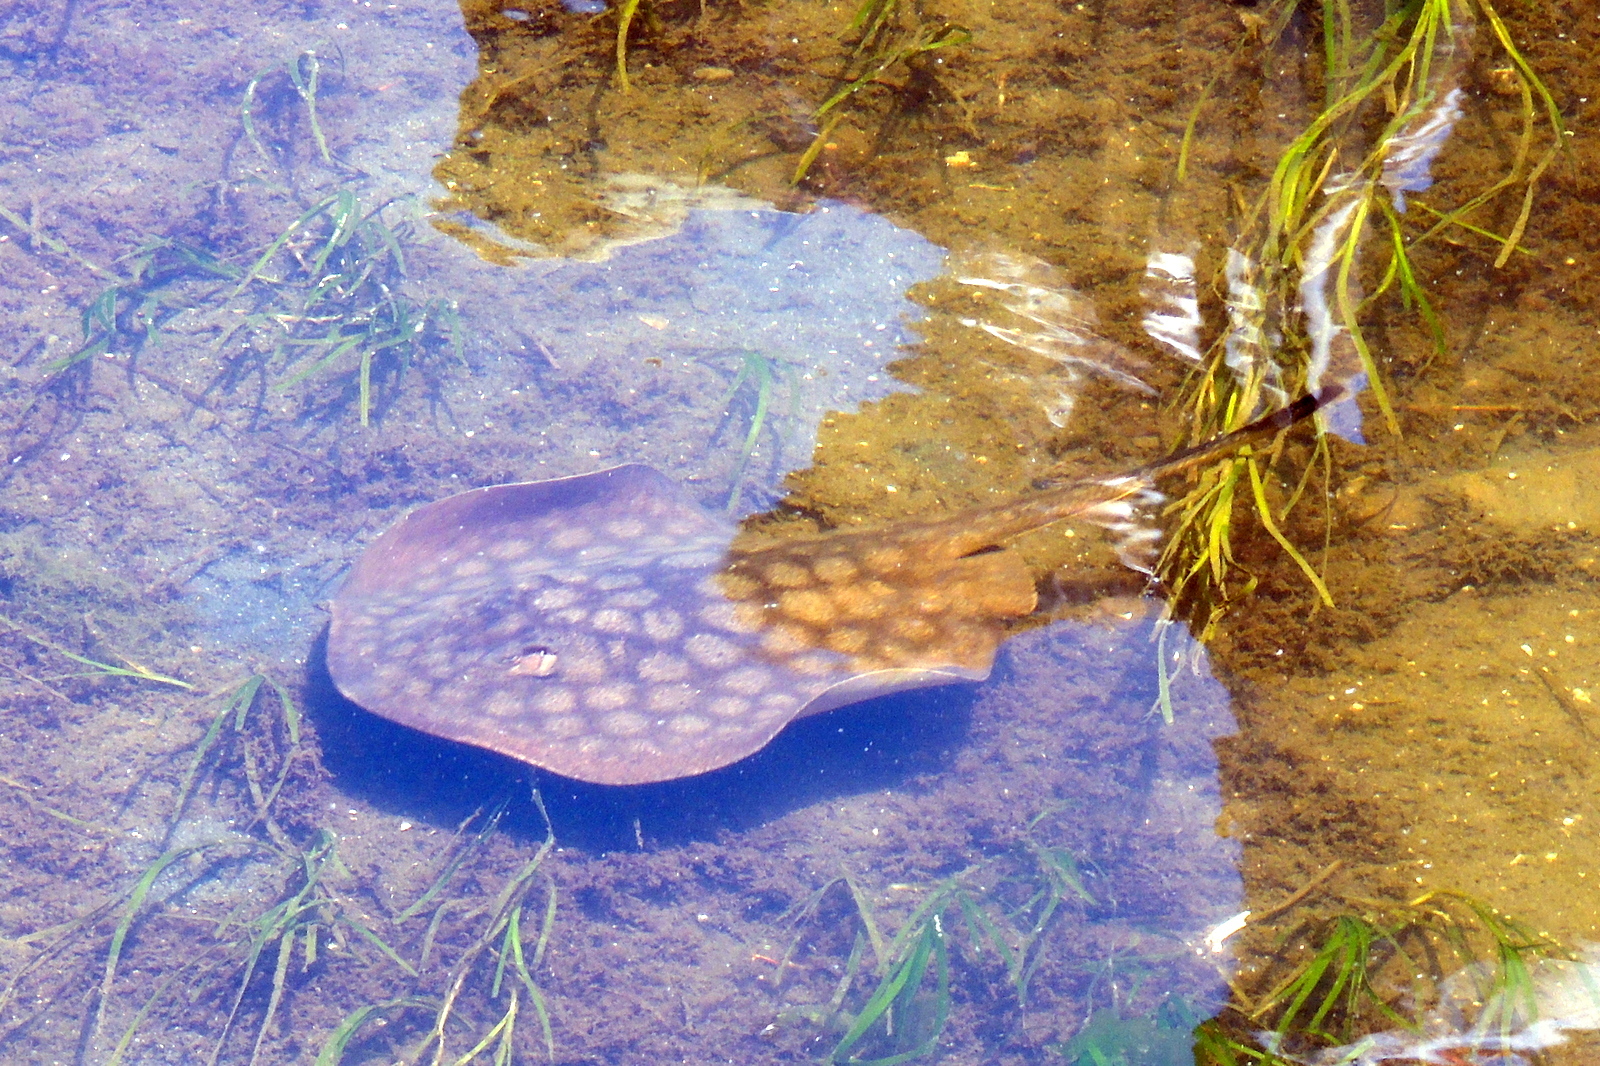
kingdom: Animalia
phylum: Chordata
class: Elasmobranchii
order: Myliobatiformes
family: Urolophidae
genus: Urolophus
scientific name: Urolophus halleri
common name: Round stingray
